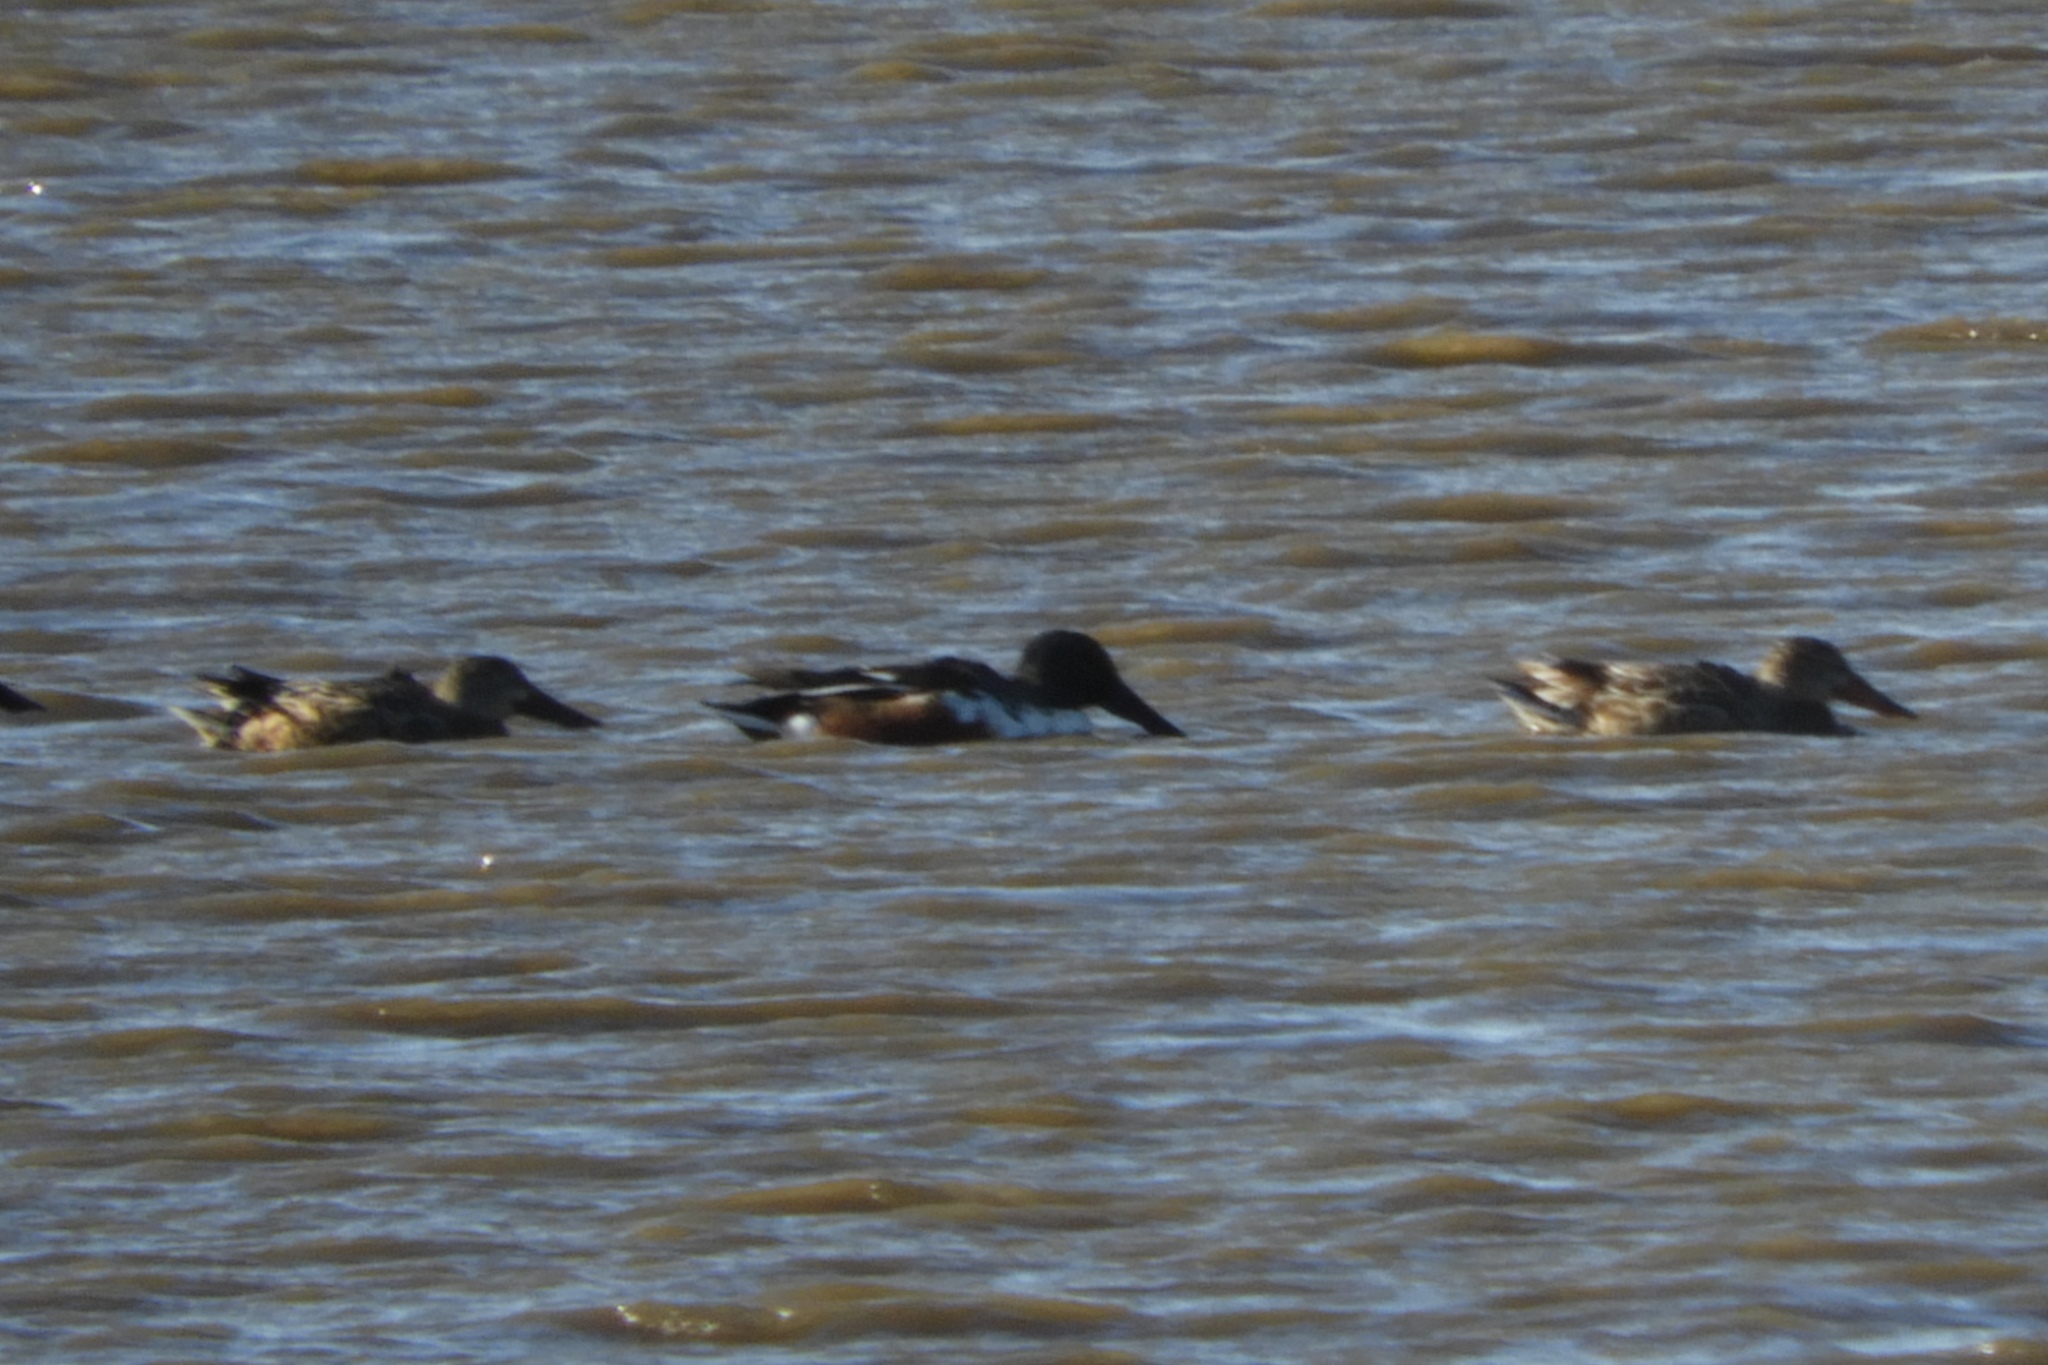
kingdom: Animalia
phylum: Chordata
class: Aves
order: Anseriformes
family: Anatidae
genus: Spatula
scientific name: Spatula clypeata
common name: Northern shoveler
